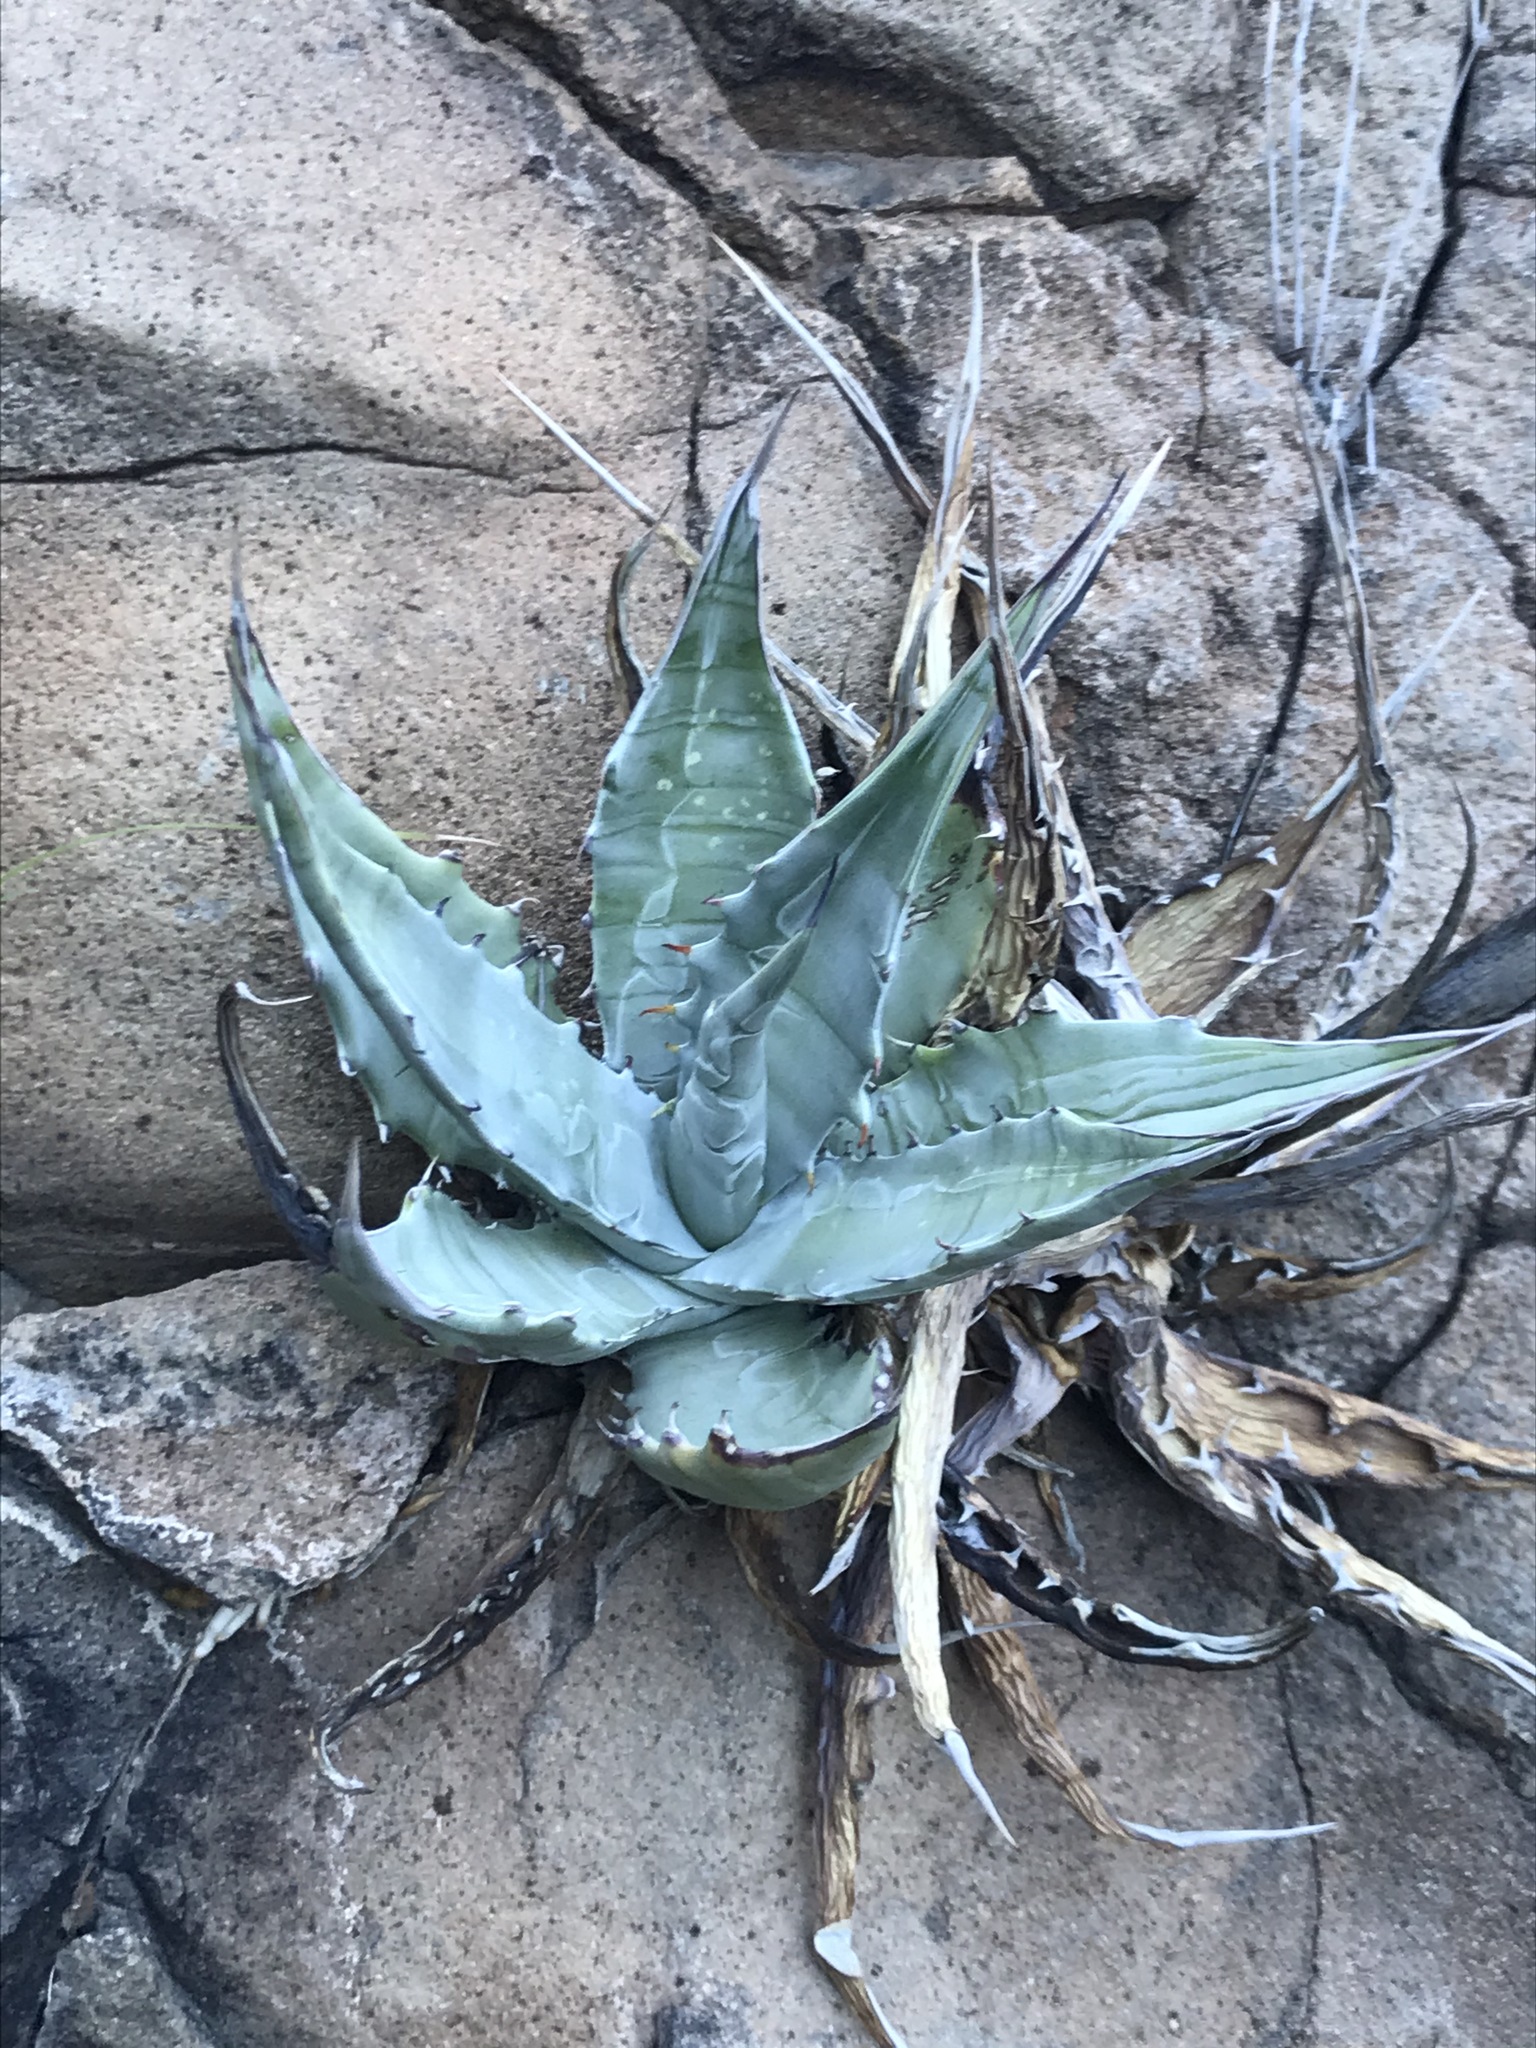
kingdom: Plantae
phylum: Tracheophyta
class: Liliopsida
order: Asparagales
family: Asparagaceae
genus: Agave
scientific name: Agave sobria
